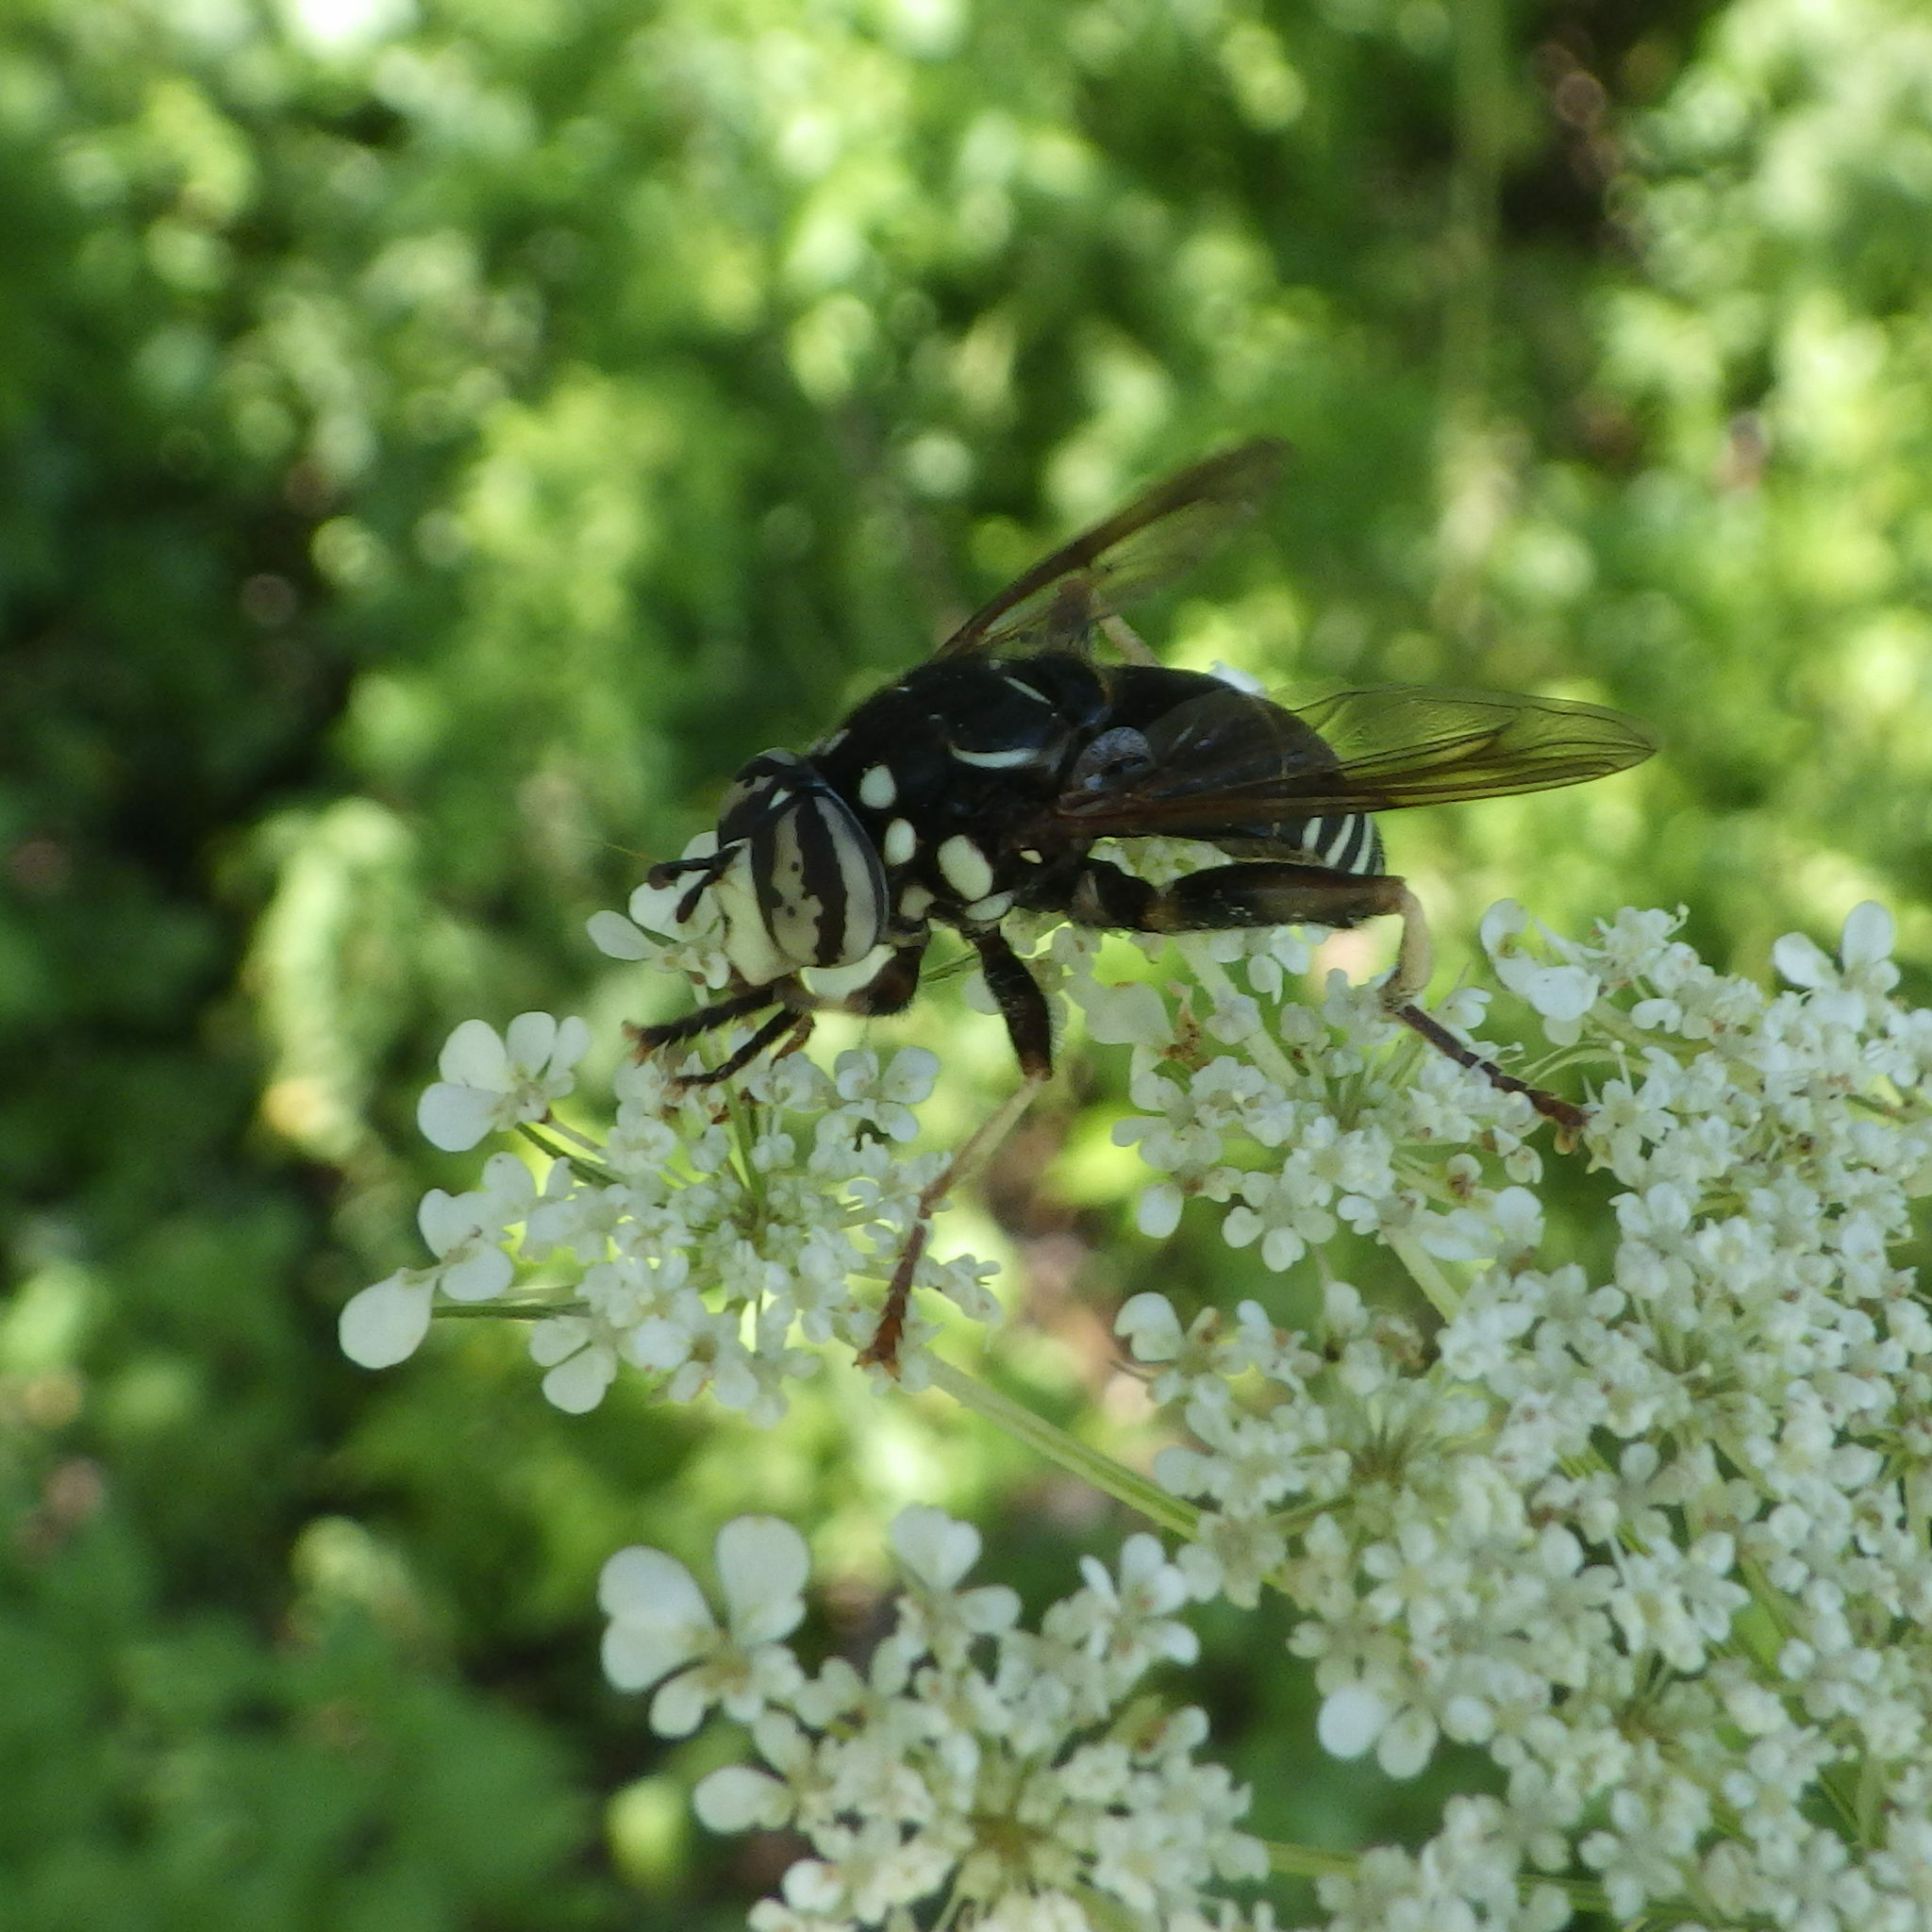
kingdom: Animalia
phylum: Arthropoda
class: Insecta
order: Diptera
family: Syrphidae
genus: Spilomyia
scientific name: Spilomyia fusca
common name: Bald-faced hornet fly
